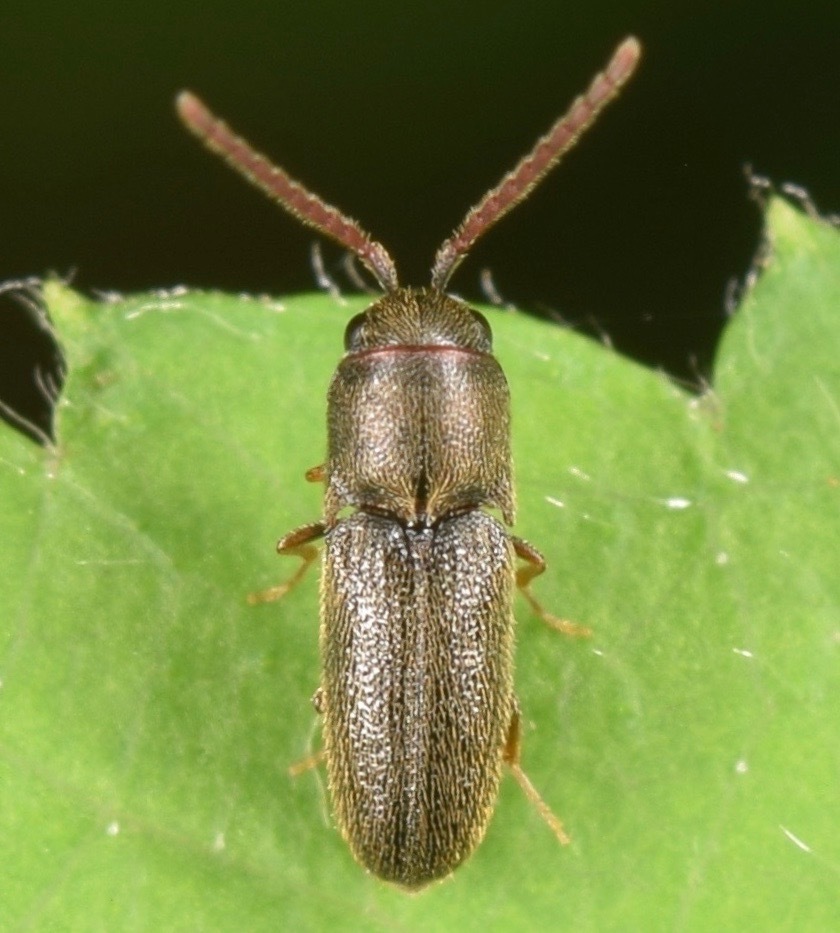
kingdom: Animalia
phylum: Arthropoda
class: Insecta
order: Coleoptera
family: Eucnemidae
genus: Golbachia
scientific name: Golbachia
